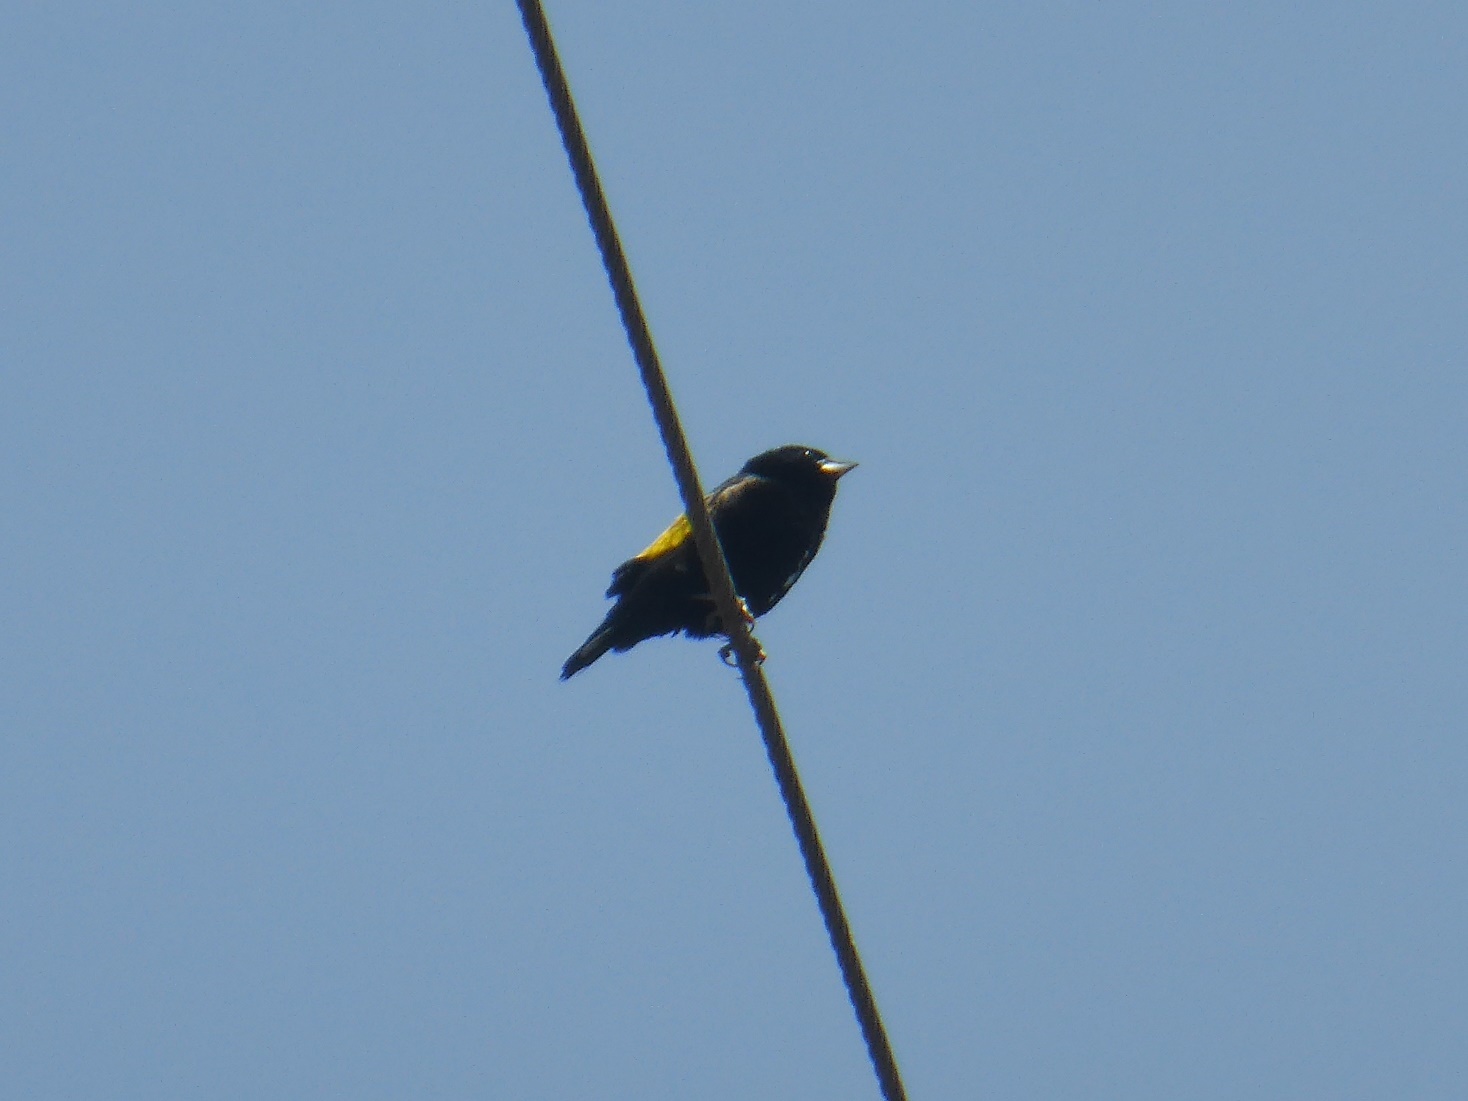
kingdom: Animalia
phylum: Chordata
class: Aves
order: Passeriformes
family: Ploceidae
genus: Euplectes
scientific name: Euplectes capensis
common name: Yellow bishop
